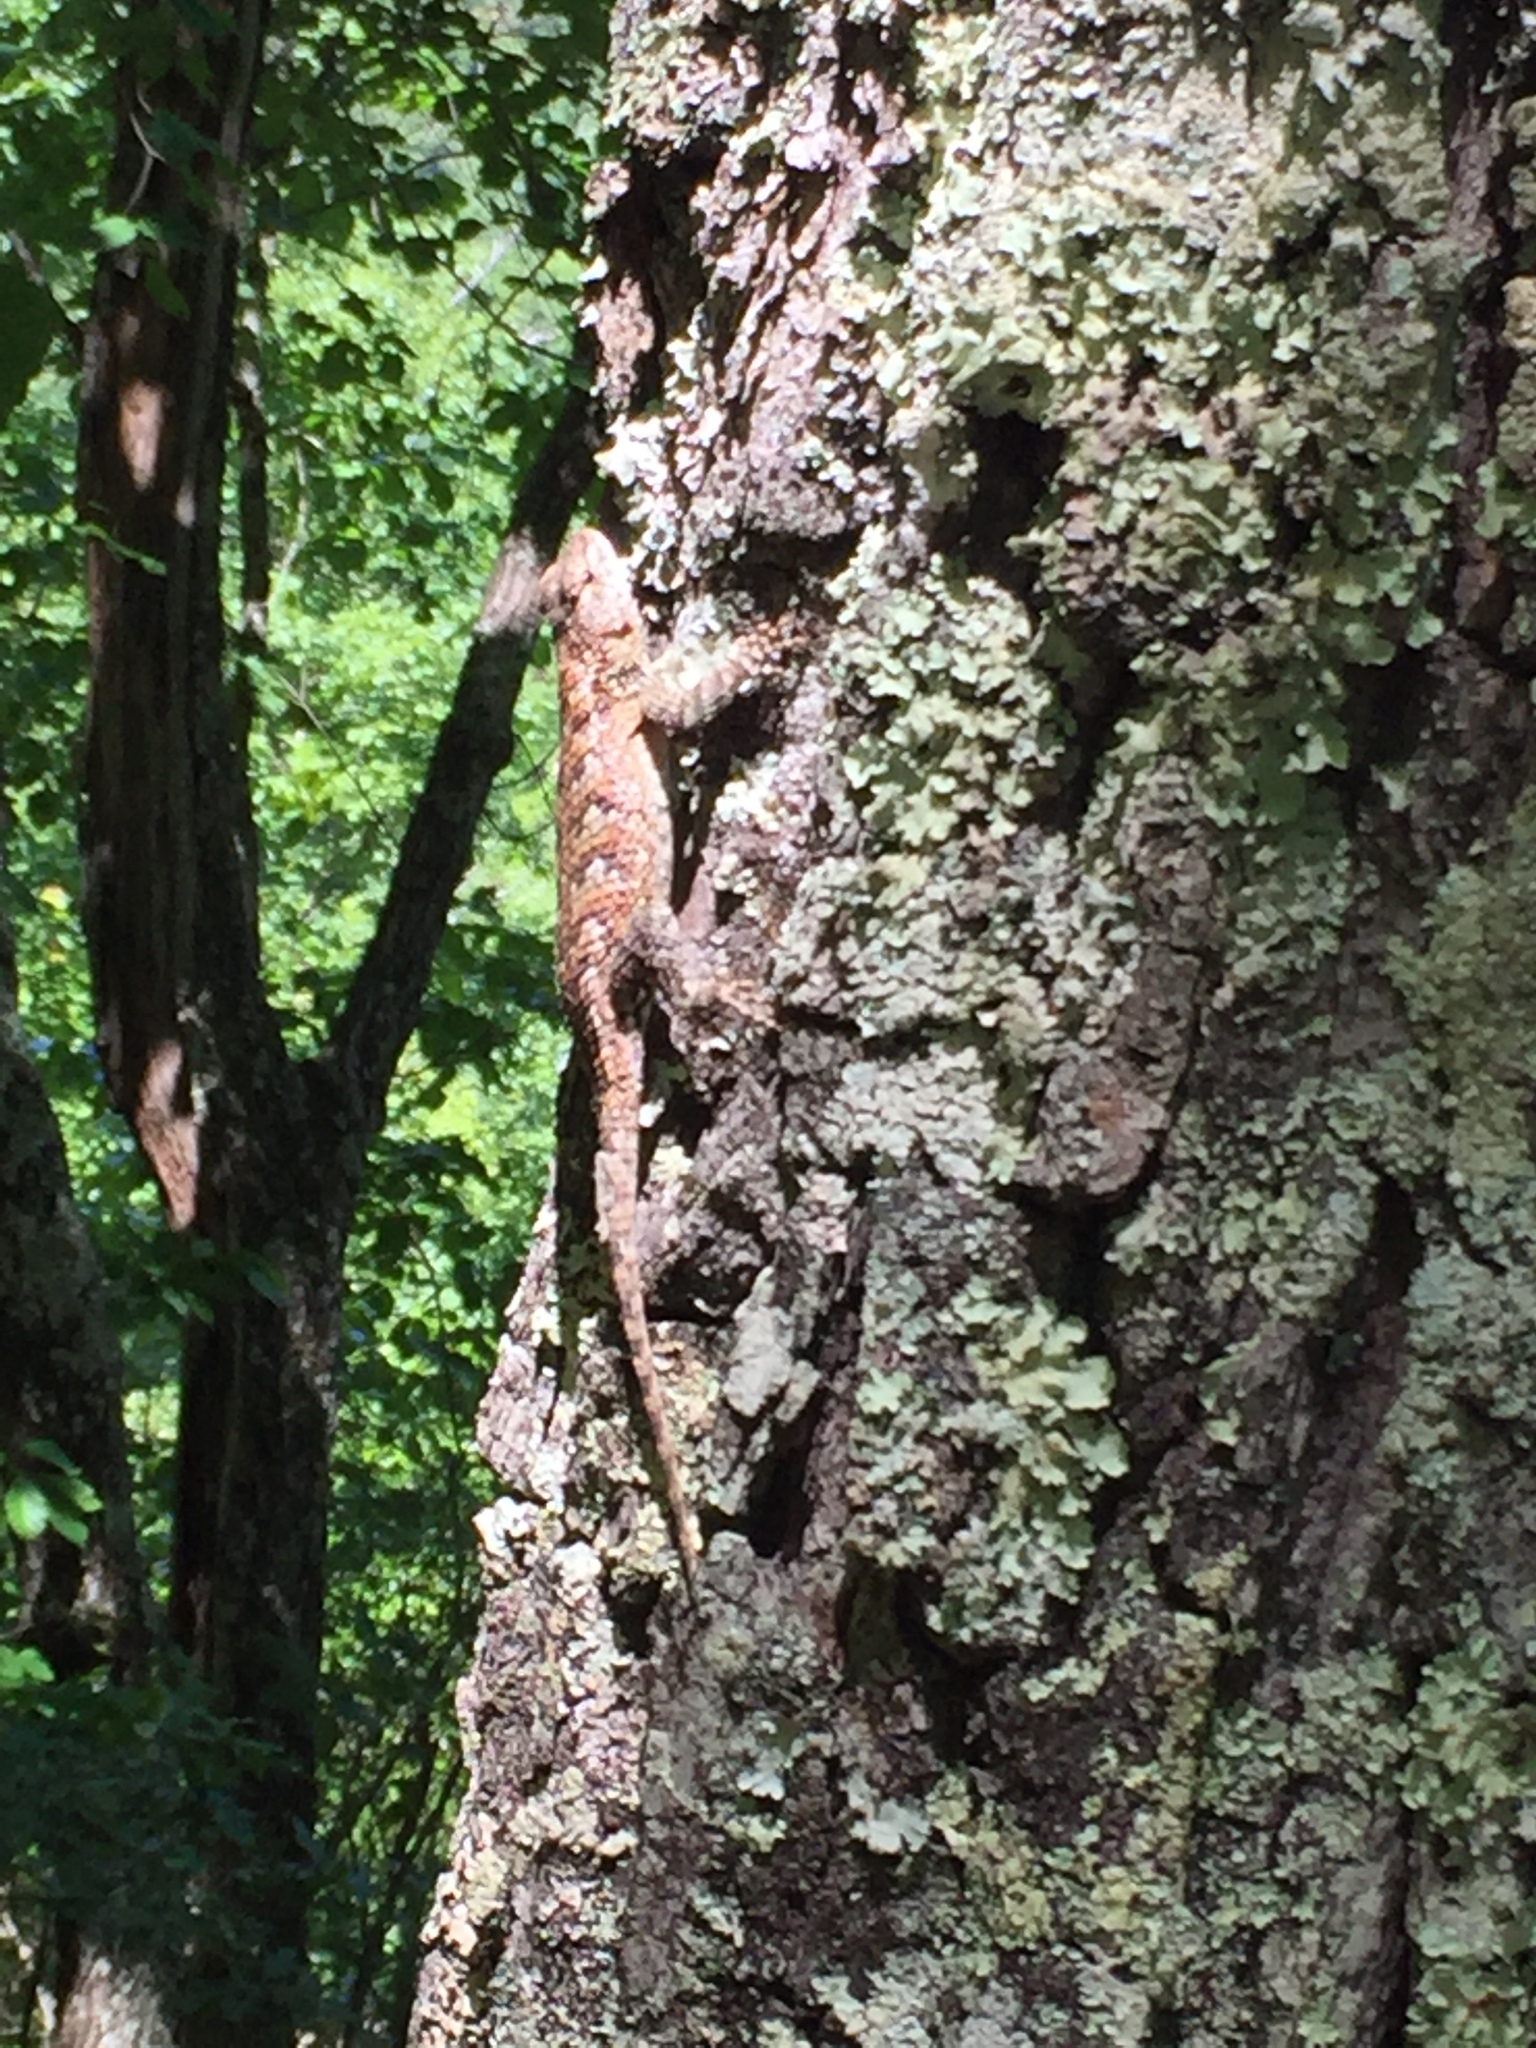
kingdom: Animalia
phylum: Chordata
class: Squamata
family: Phrynosomatidae
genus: Sceloporus
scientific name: Sceloporus undulatus
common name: Eastern fence lizard
